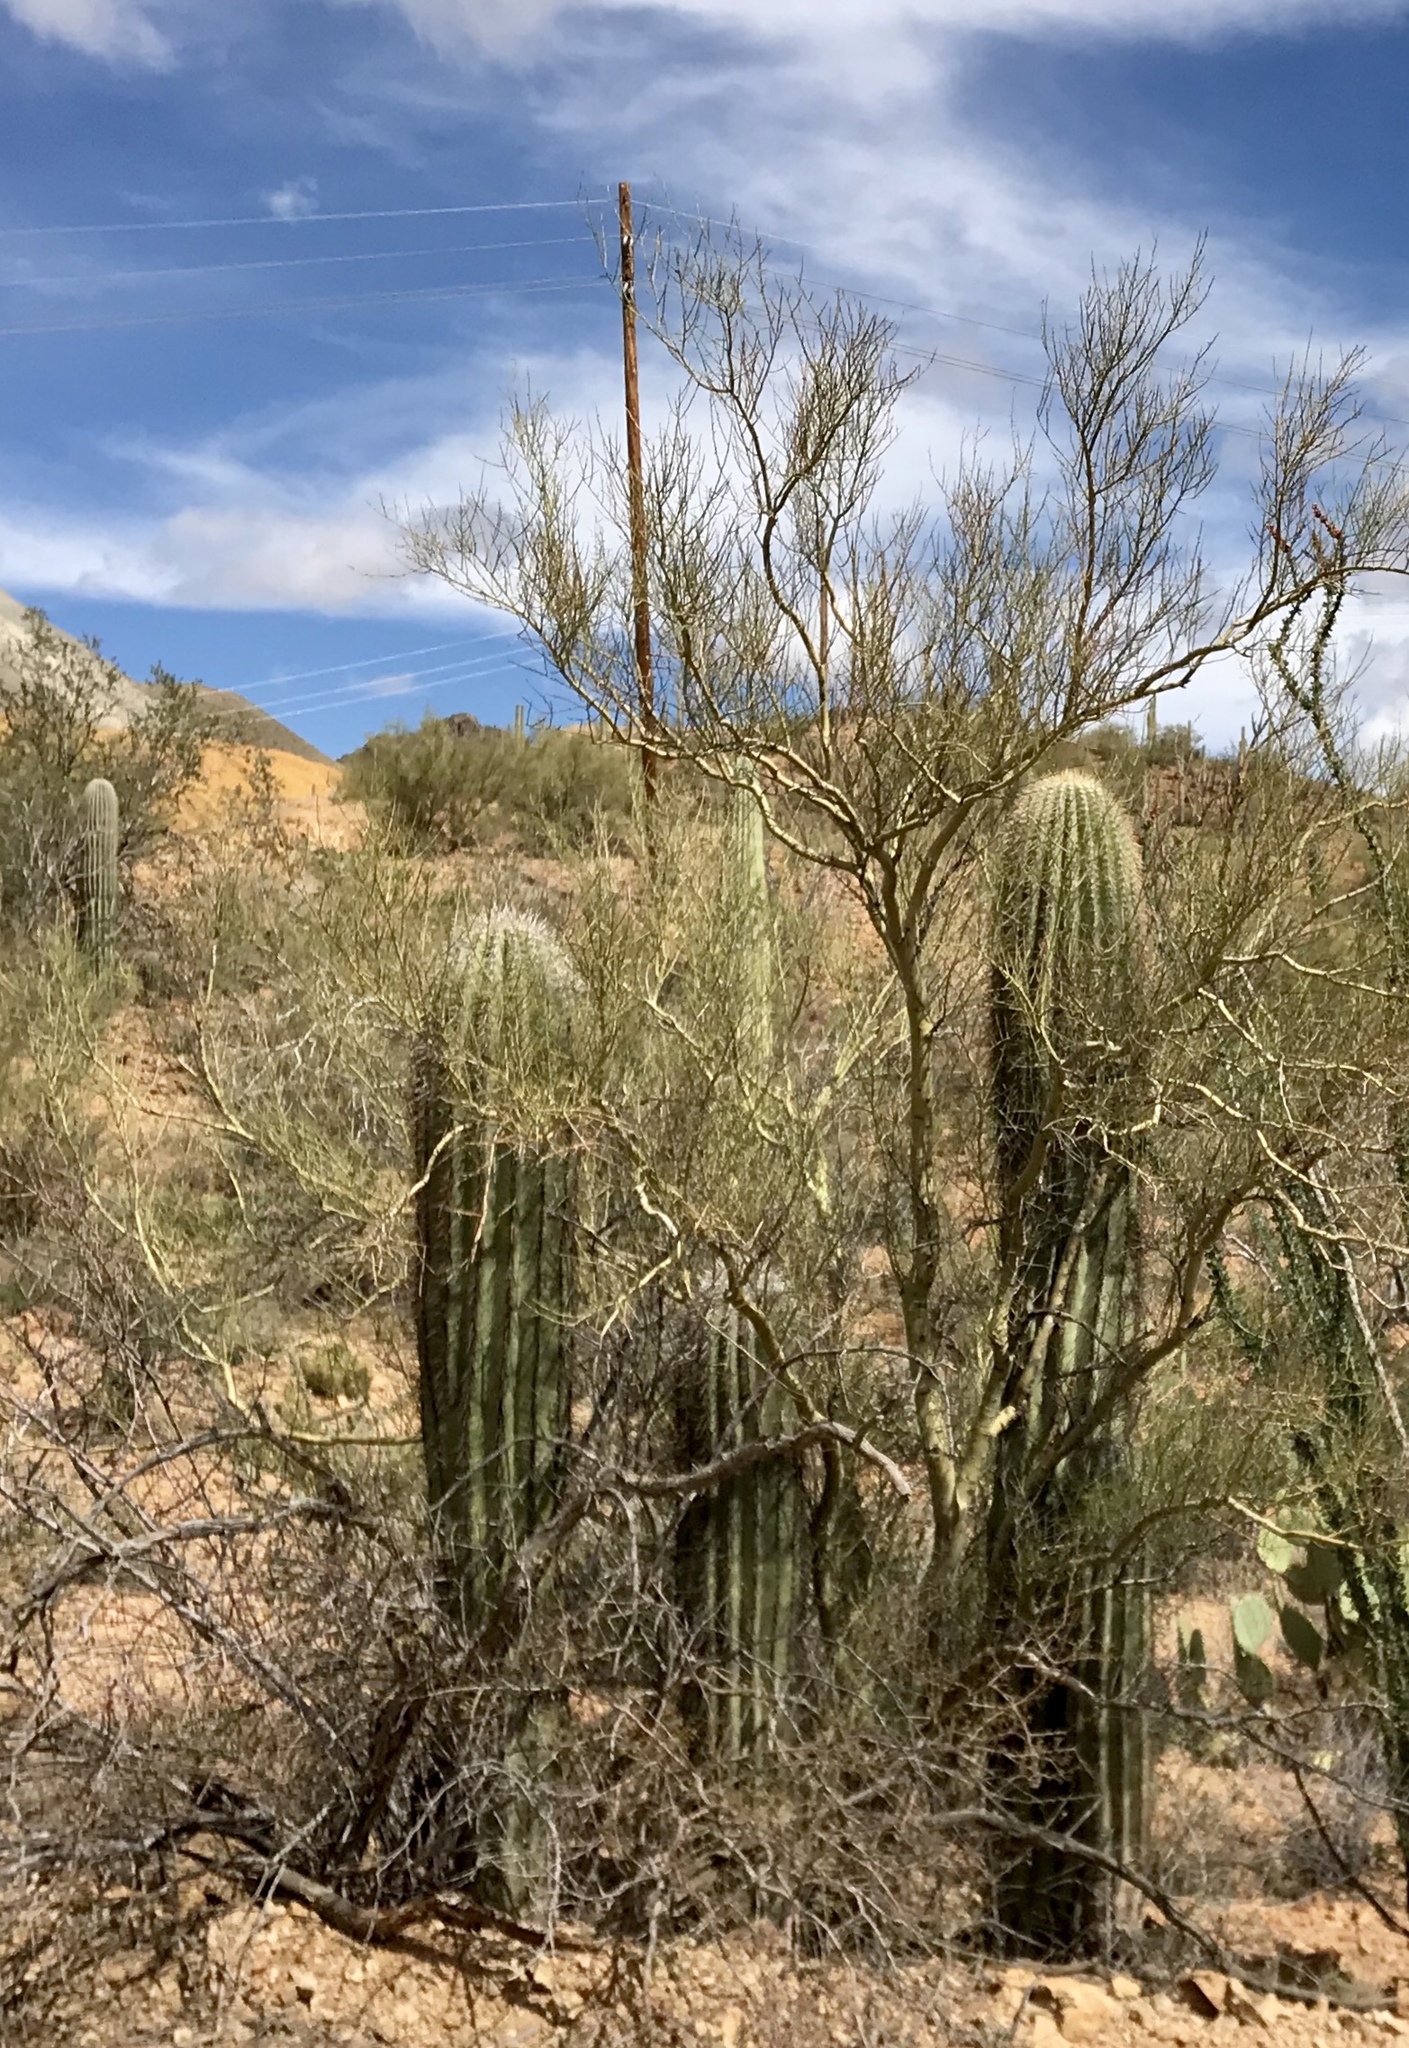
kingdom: Plantae
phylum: Tracheophyta
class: Magnoliopsida
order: Caryophyllales
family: Cactaceae
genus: Carnegiea
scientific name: Carnegiea gigantea
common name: Saguaro
